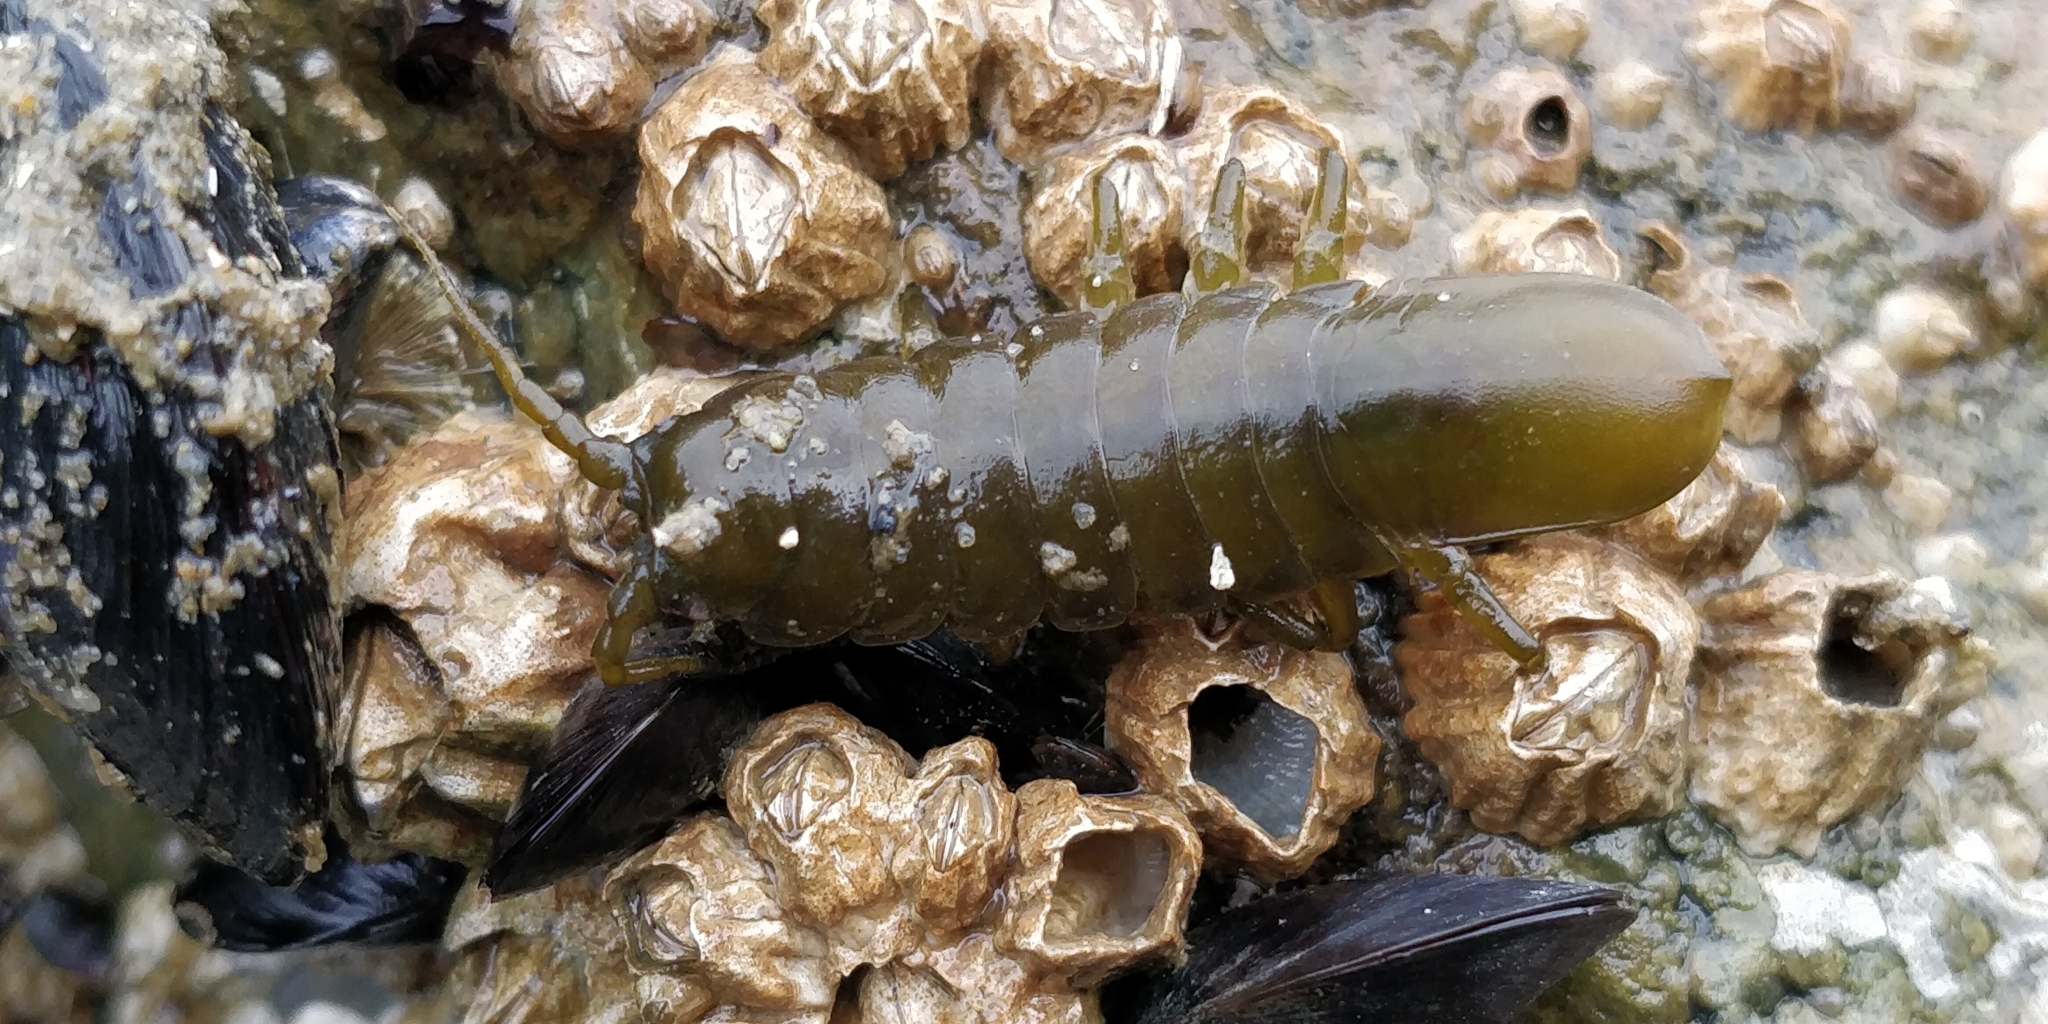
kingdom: Animalia
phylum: Arthropoda
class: Malacostraca
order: Isopoda
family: Idoteidae
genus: Pentidotea
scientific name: Pentidotea wosnesenskii
